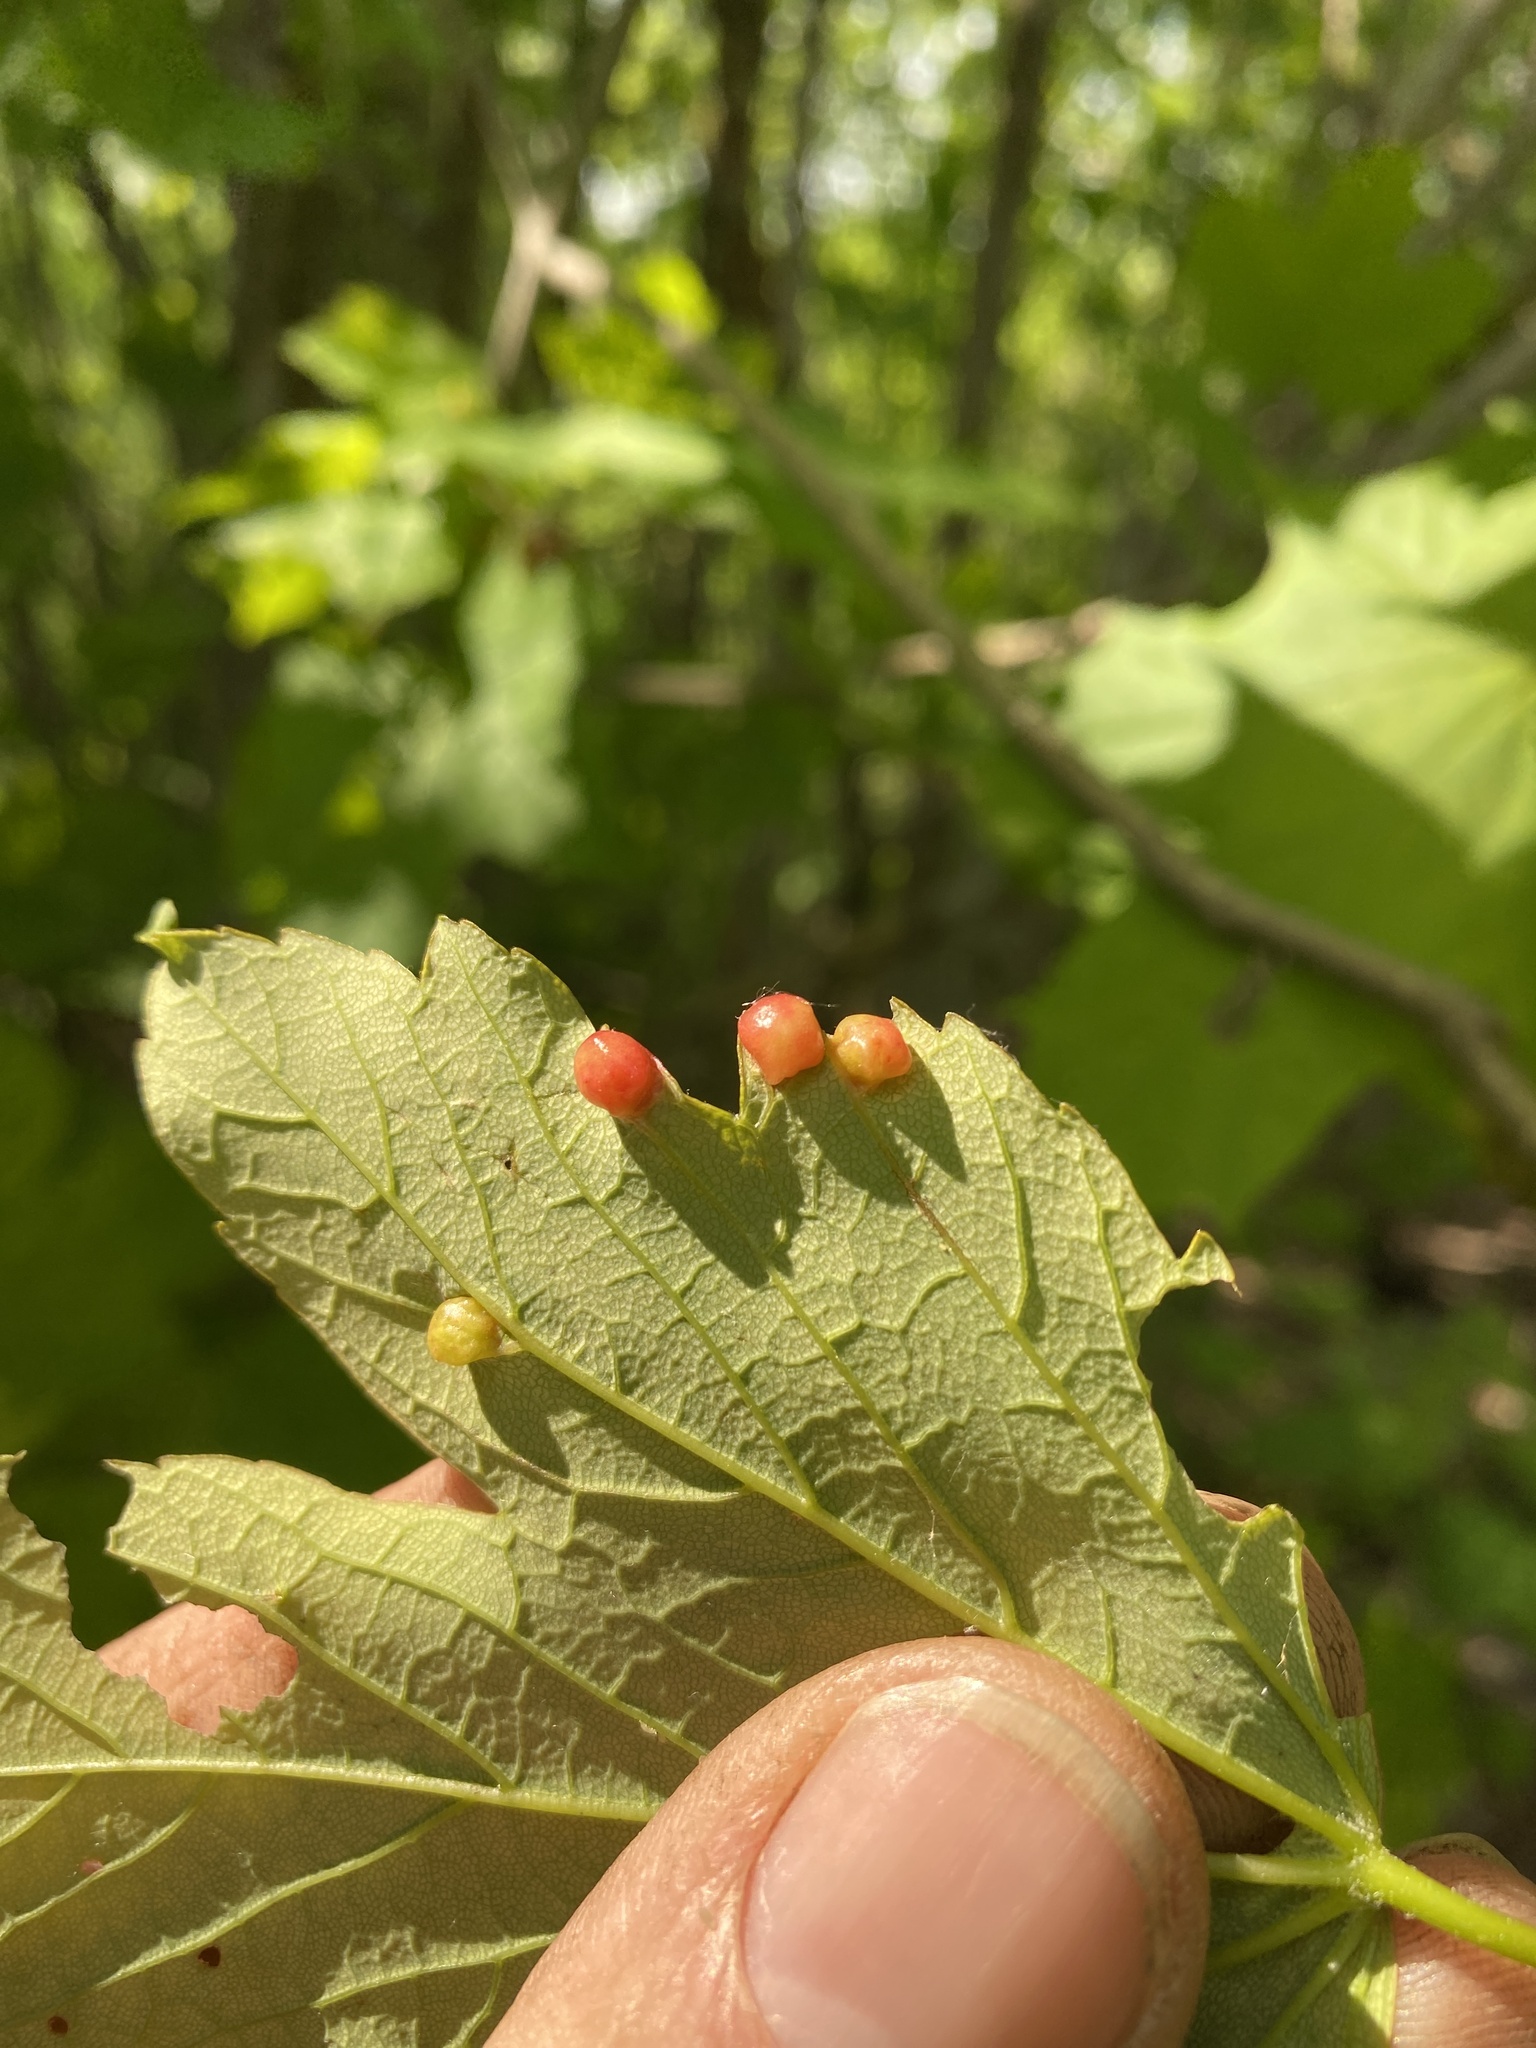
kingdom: Animalia
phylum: Arthropoda
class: Insecta
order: Hymenoptera
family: Cynipidae
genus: Pediaspis
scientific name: Pediaspis aceris
